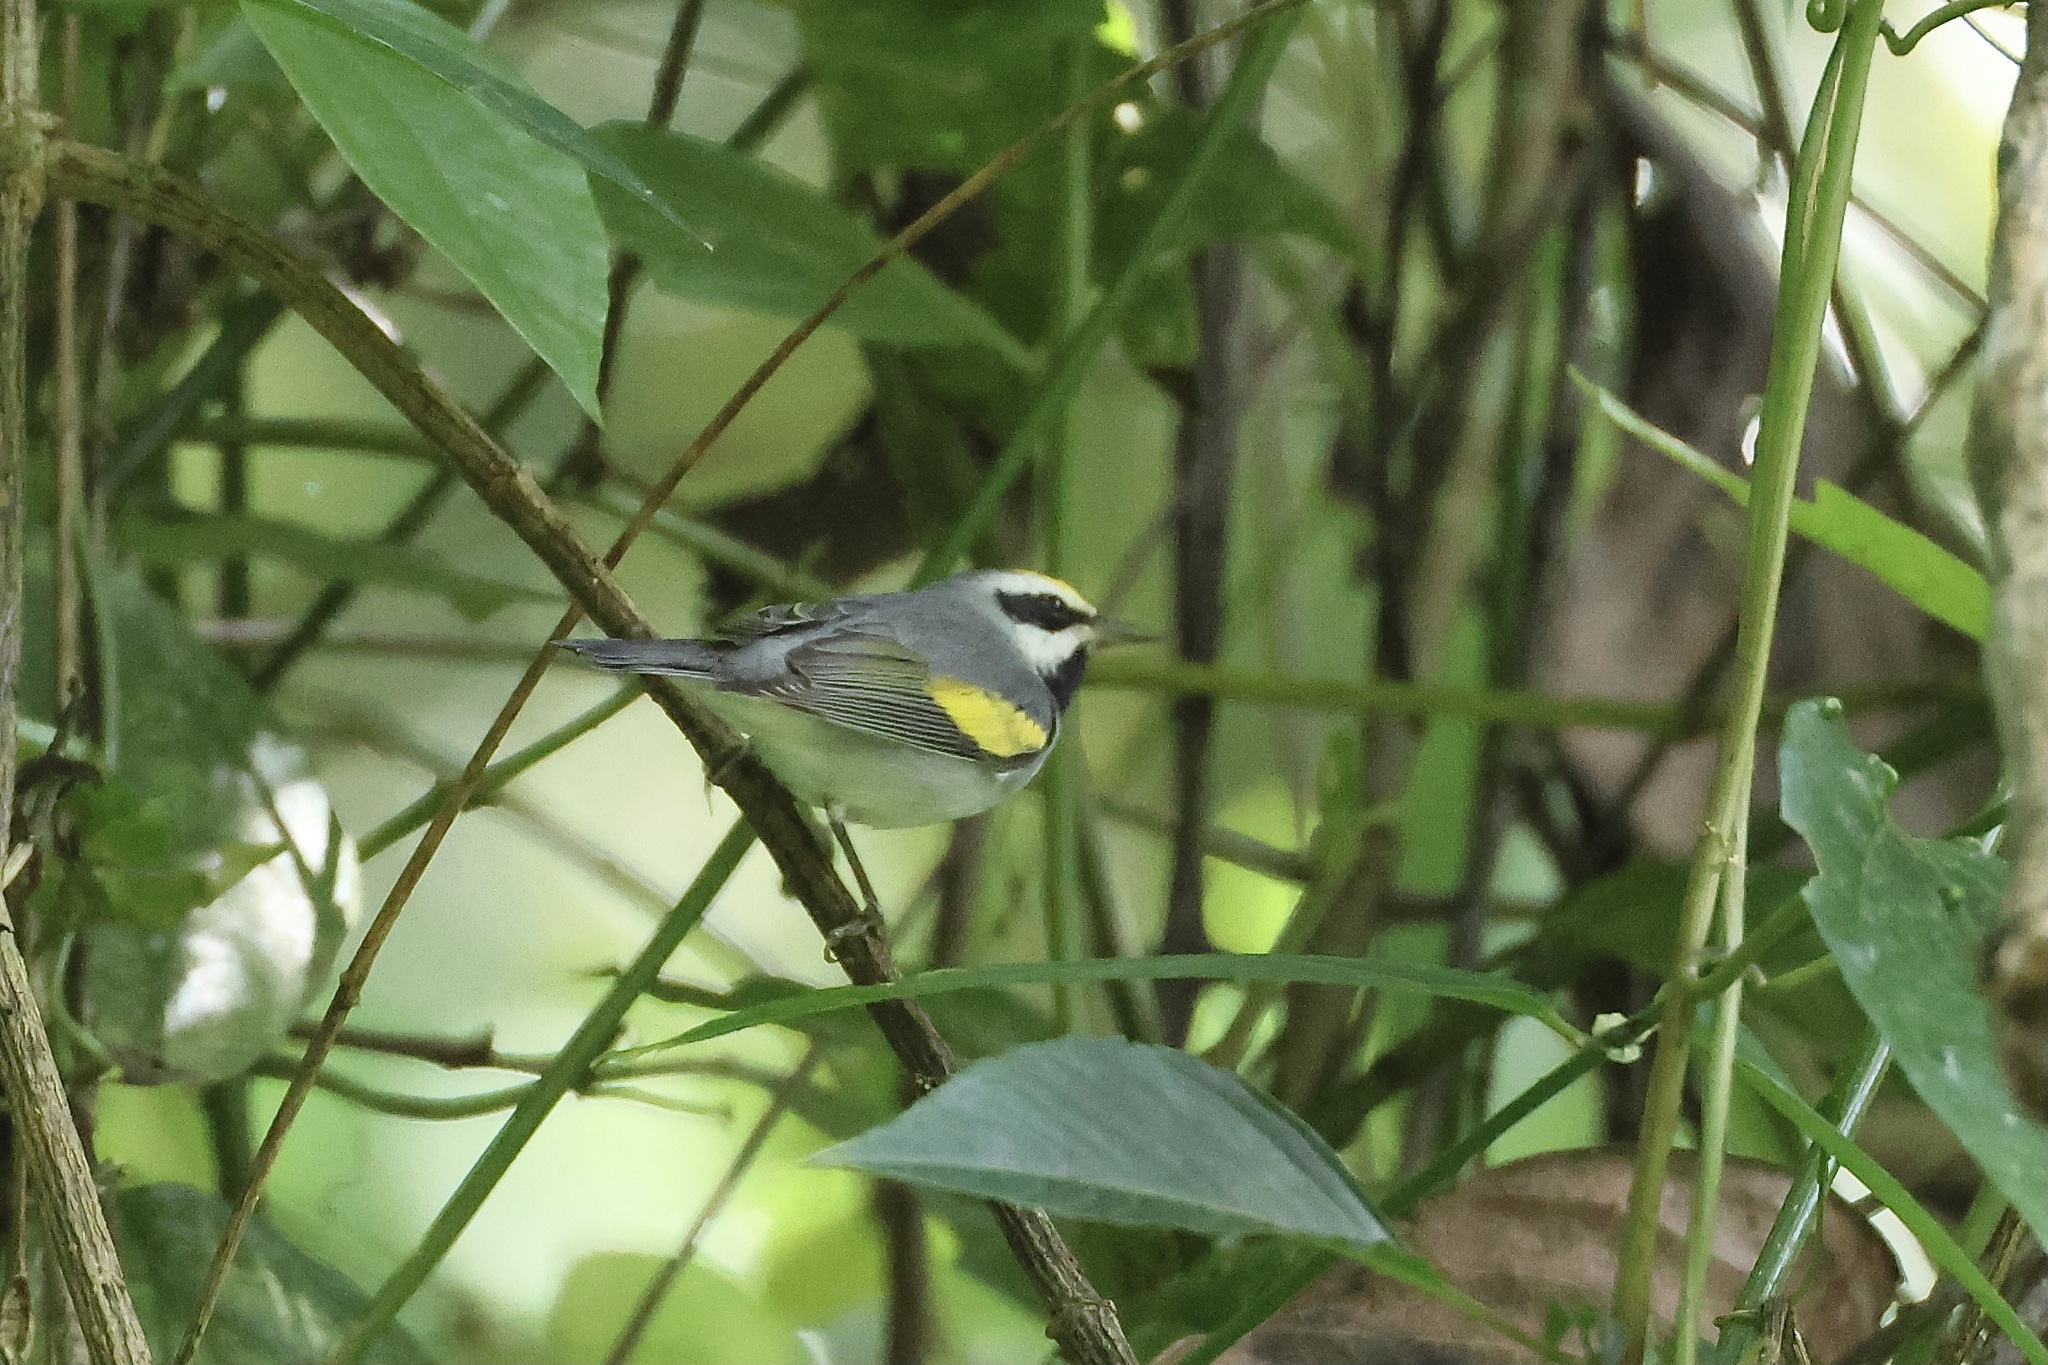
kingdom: Animalia
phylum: Chordata
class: Aves
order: Passeriformes
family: Parulidae
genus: Vermivora
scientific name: Vermivora chrysoptera
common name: Golden-winged warbler
